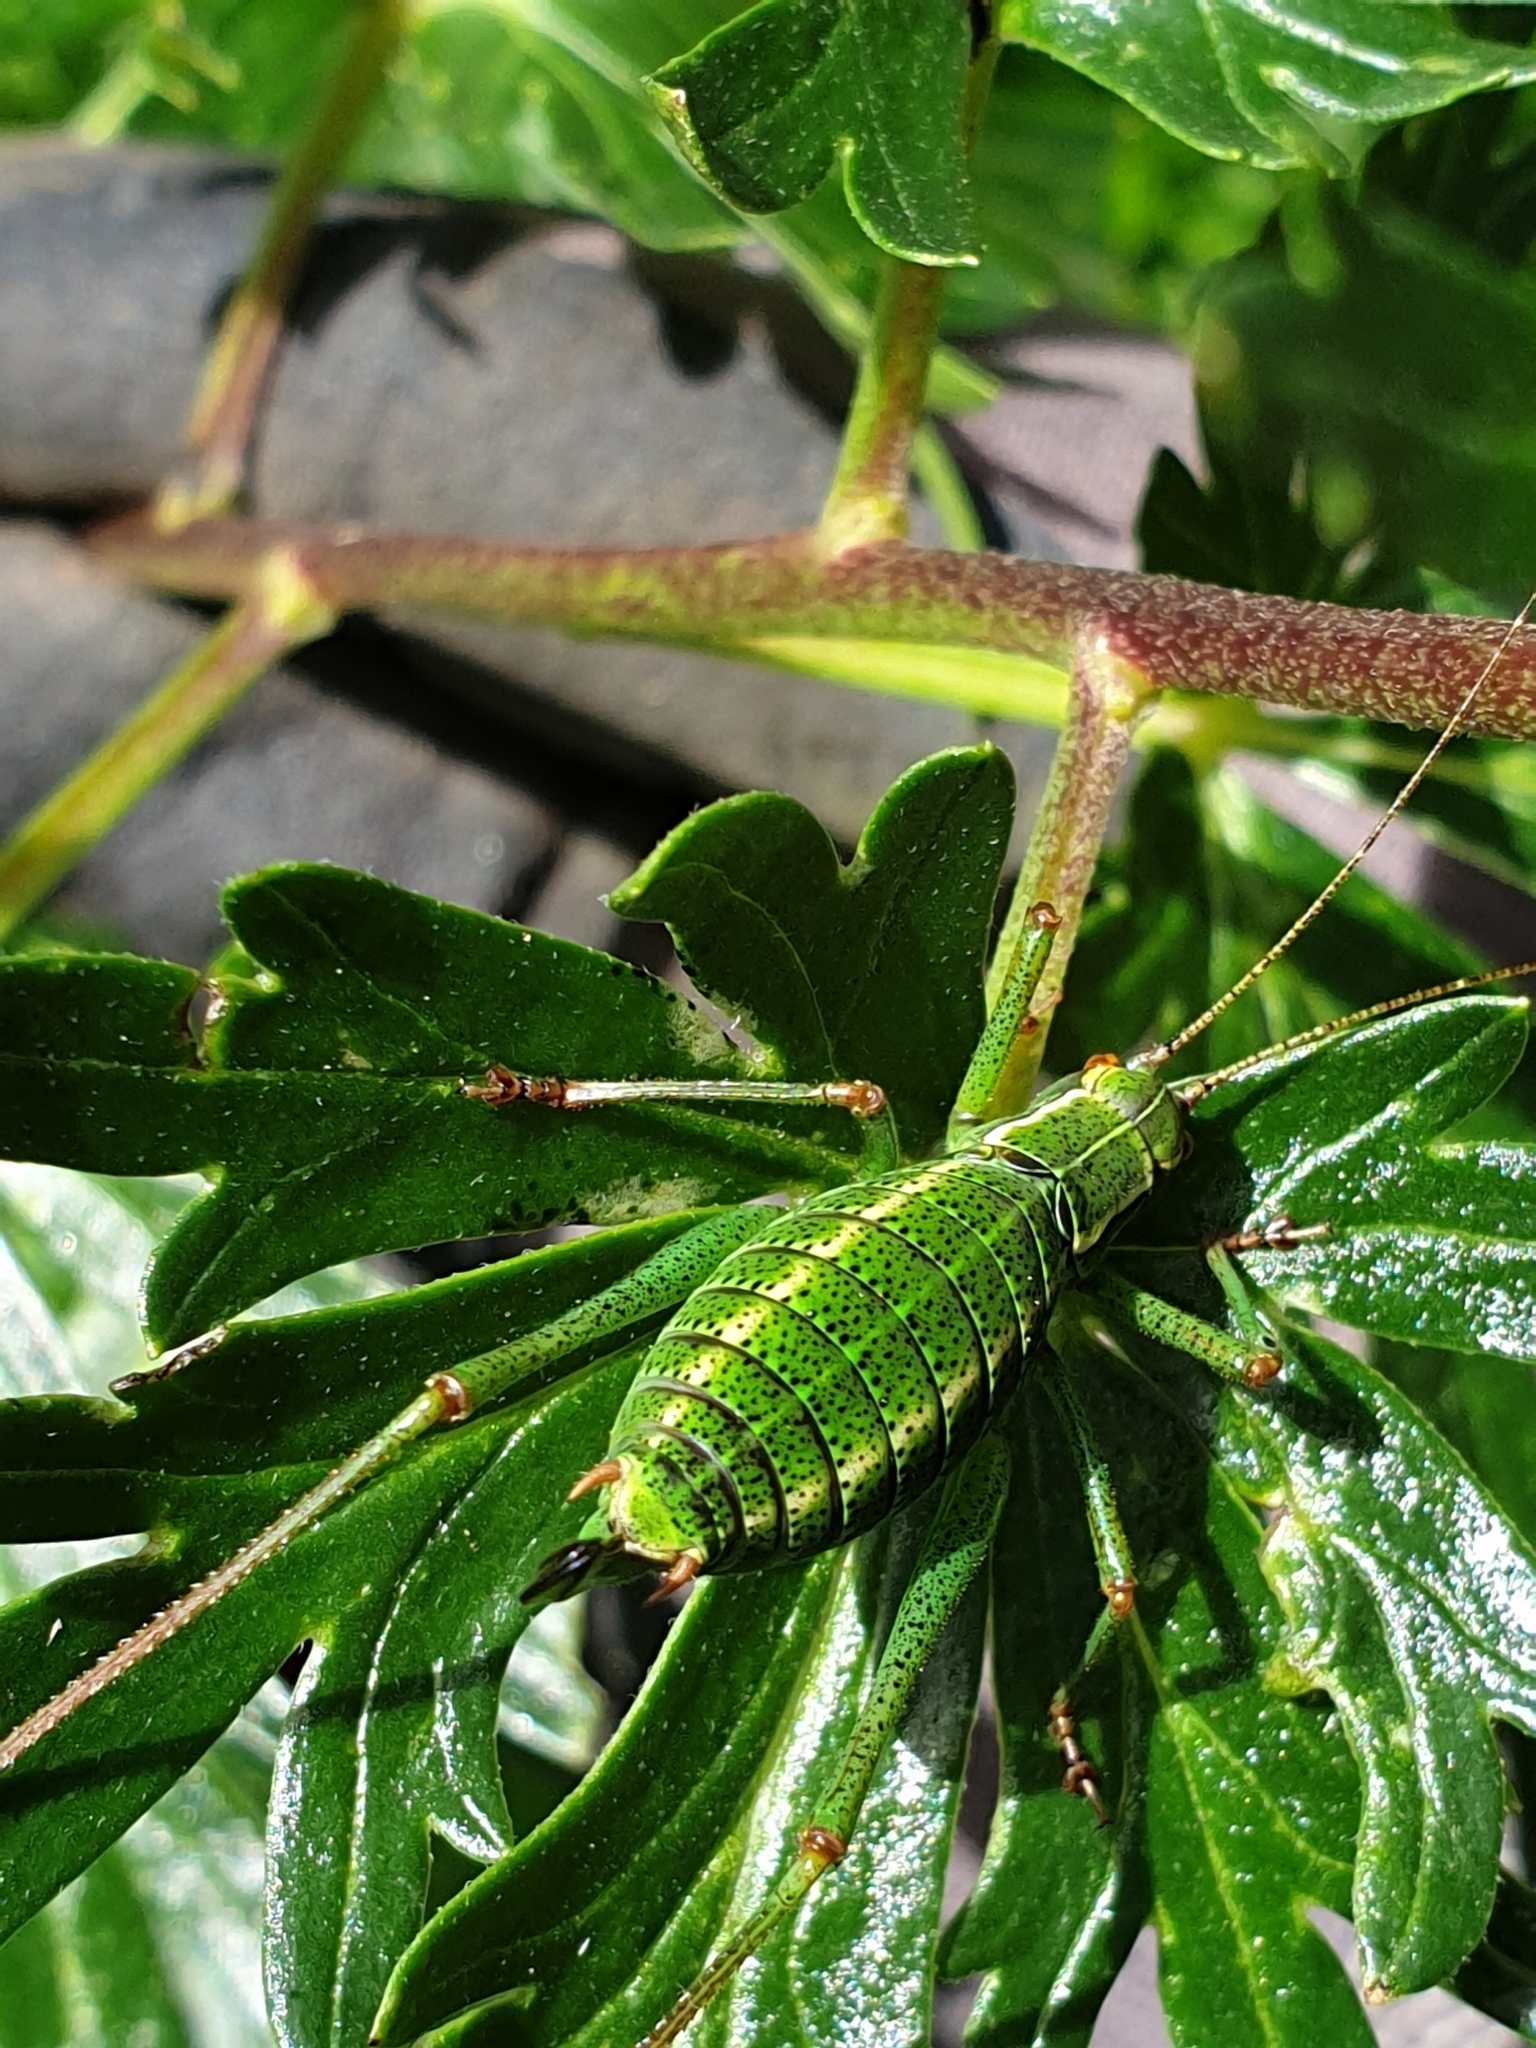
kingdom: Animalia
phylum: Arthropoda
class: Insecta
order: Orthoptera
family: Tettigoniidae
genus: Barbitistes
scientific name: Barbitistes serricauda
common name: Saw-tailed bush-cricket
